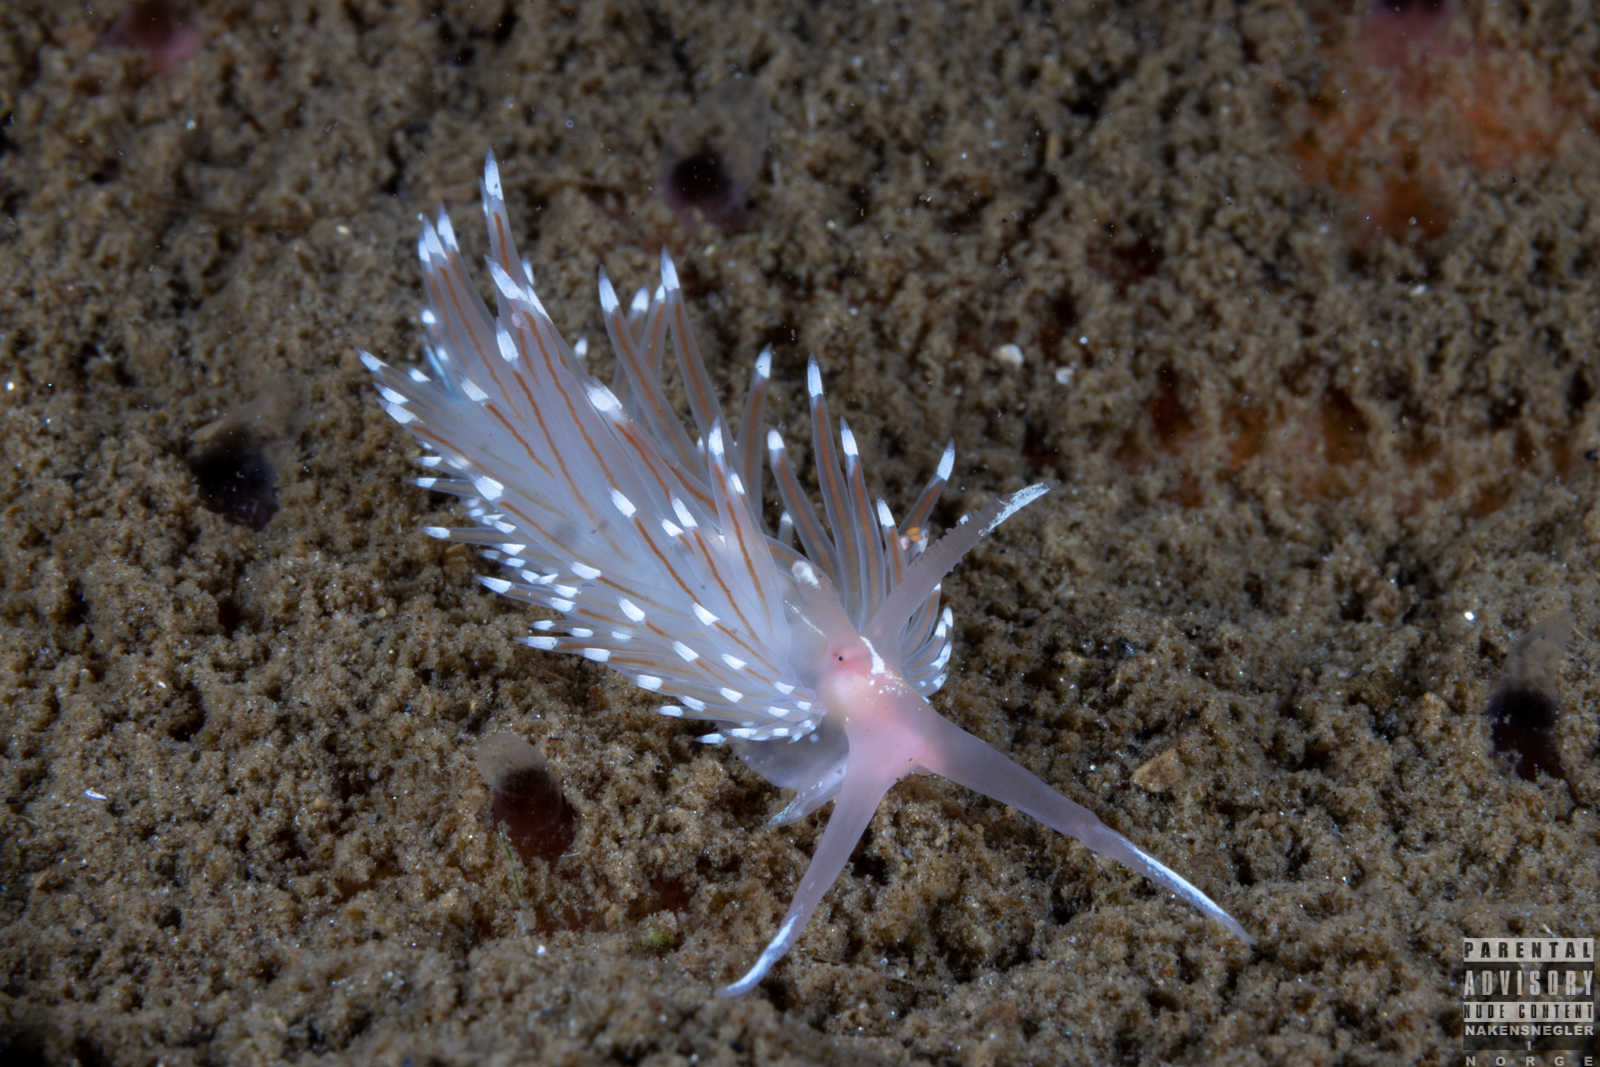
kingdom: Animalia
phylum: Mollusca
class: Gastropoda
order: Nudibranchia
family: Facelinidae
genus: Facelina
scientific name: Facelina bostoniensis
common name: Boston facelina
